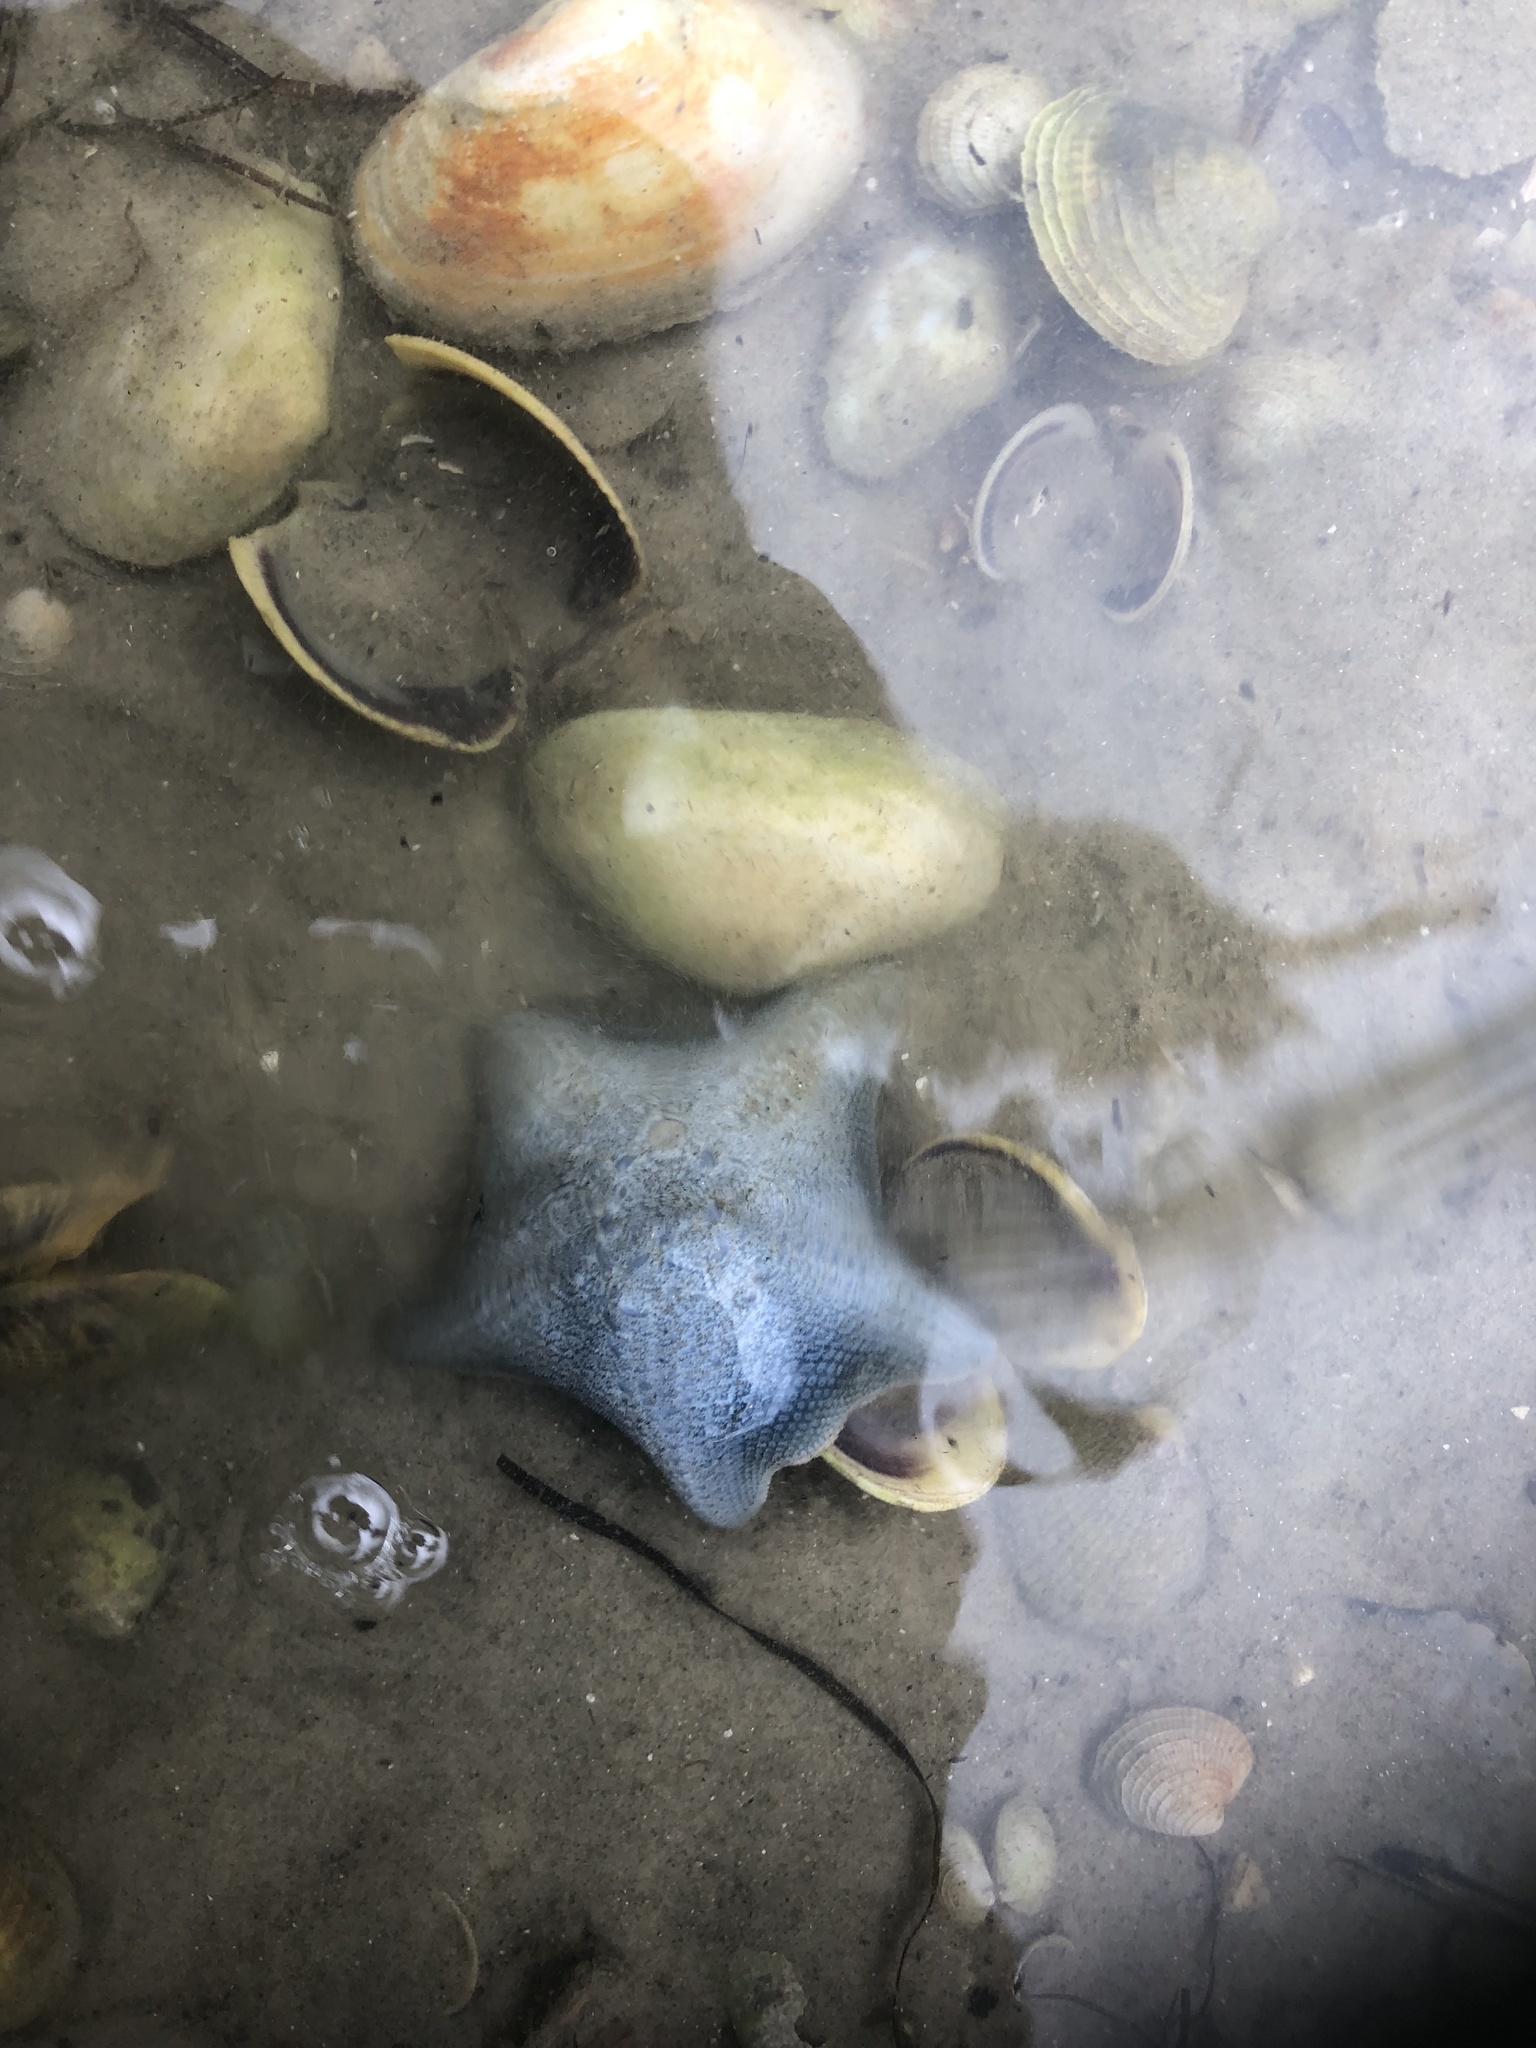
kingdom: Animalia
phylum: Echinodermata
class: Asteroidea
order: Valvatida
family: Asterinidae
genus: Patiriella
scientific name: Patiriella regularis
